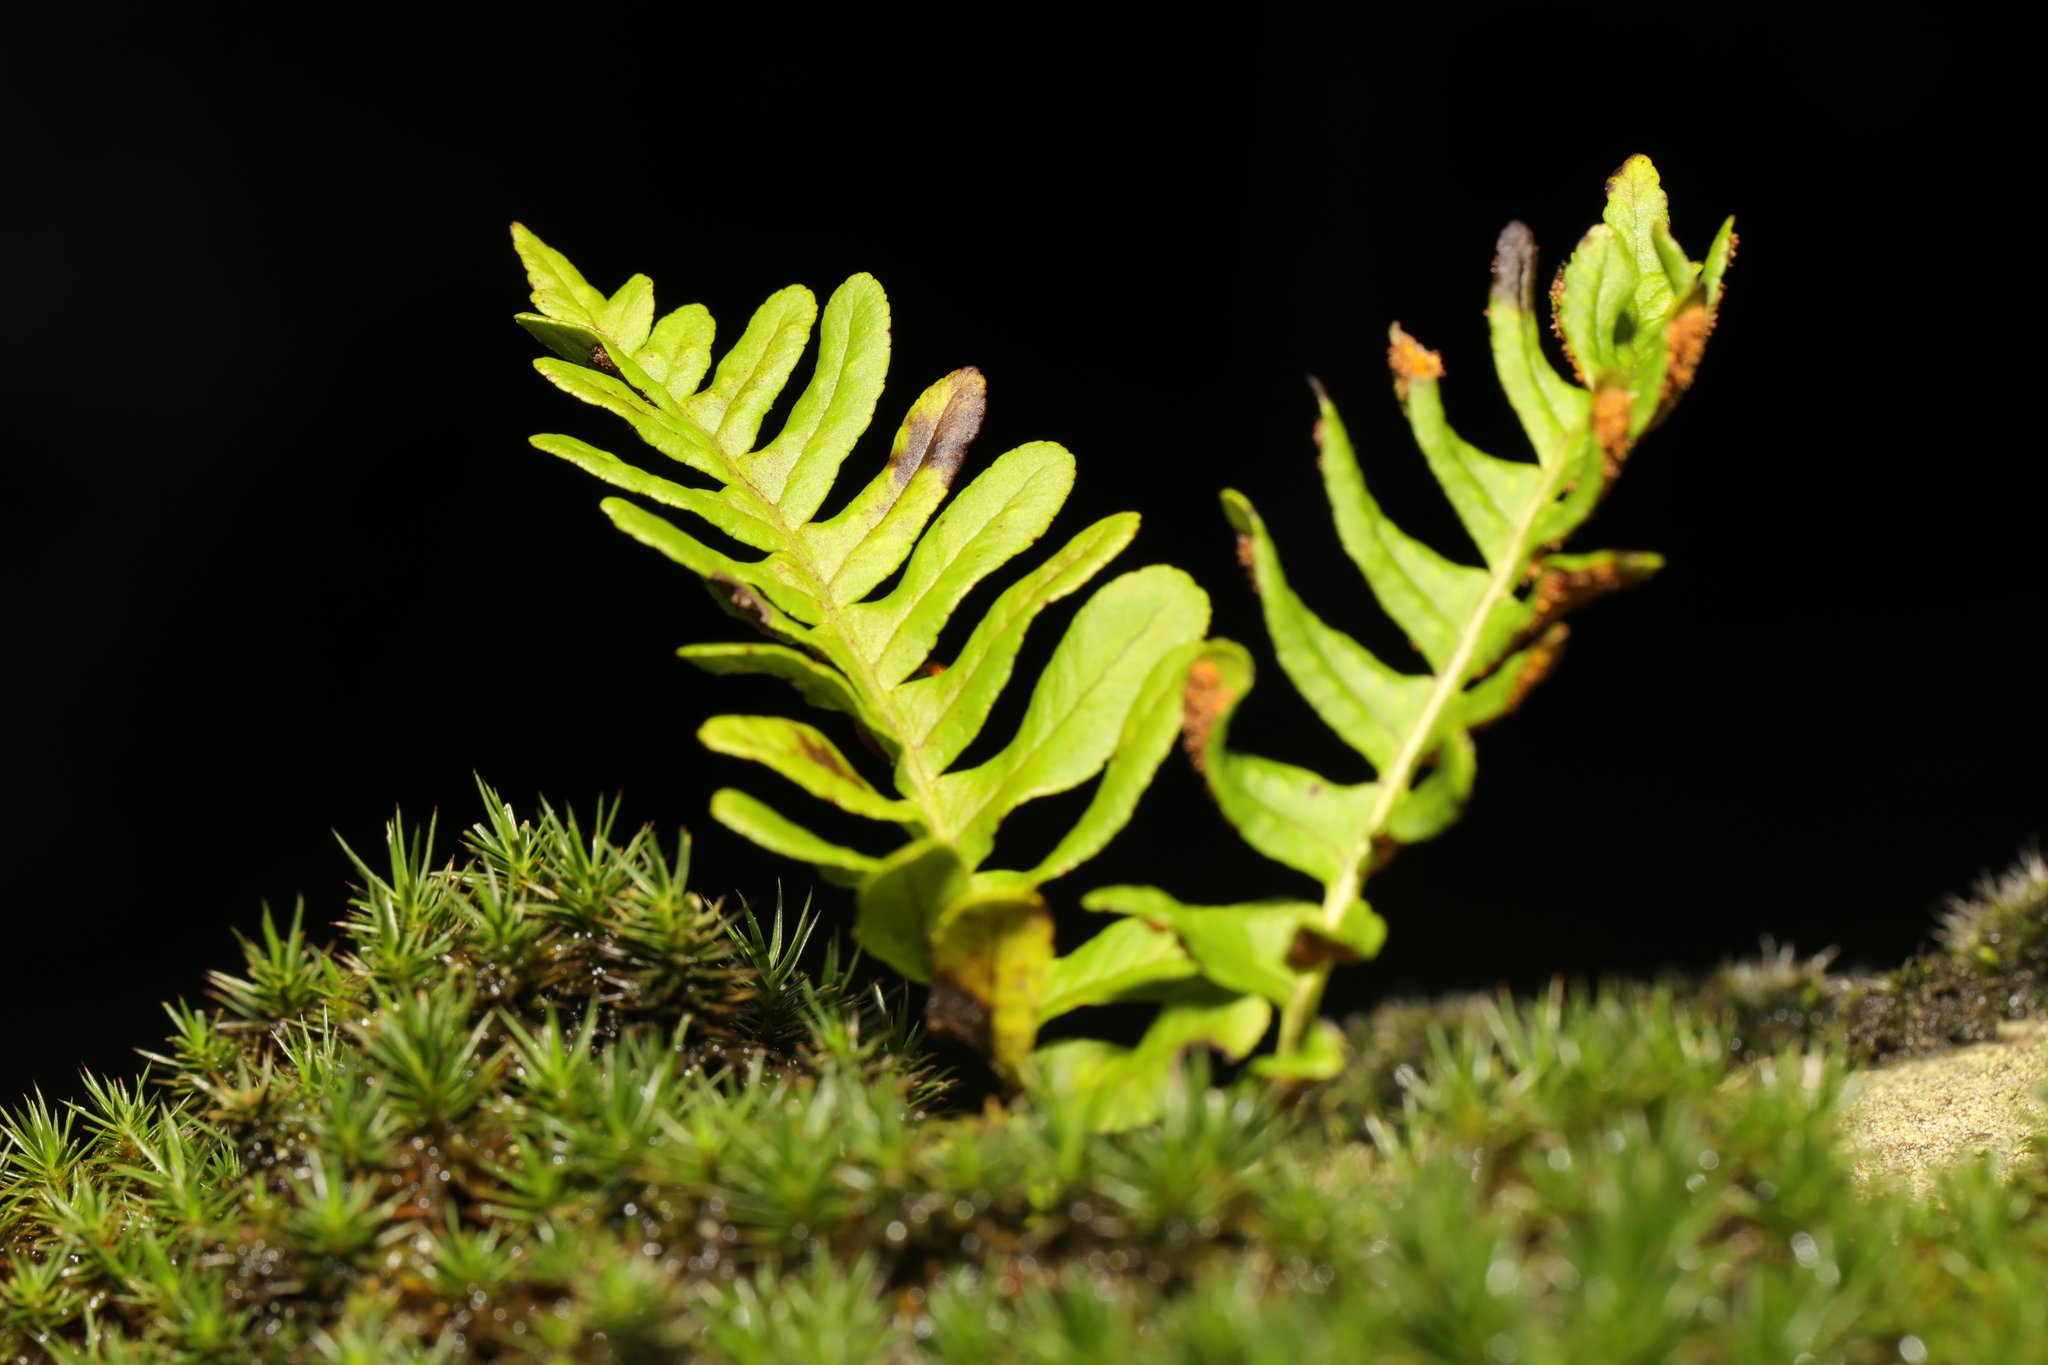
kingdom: Plantae
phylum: Tracheophyta
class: Polypodiopsida
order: Polypodiales
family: Polypodiaceae
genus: Polypodium
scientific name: Polypodium
